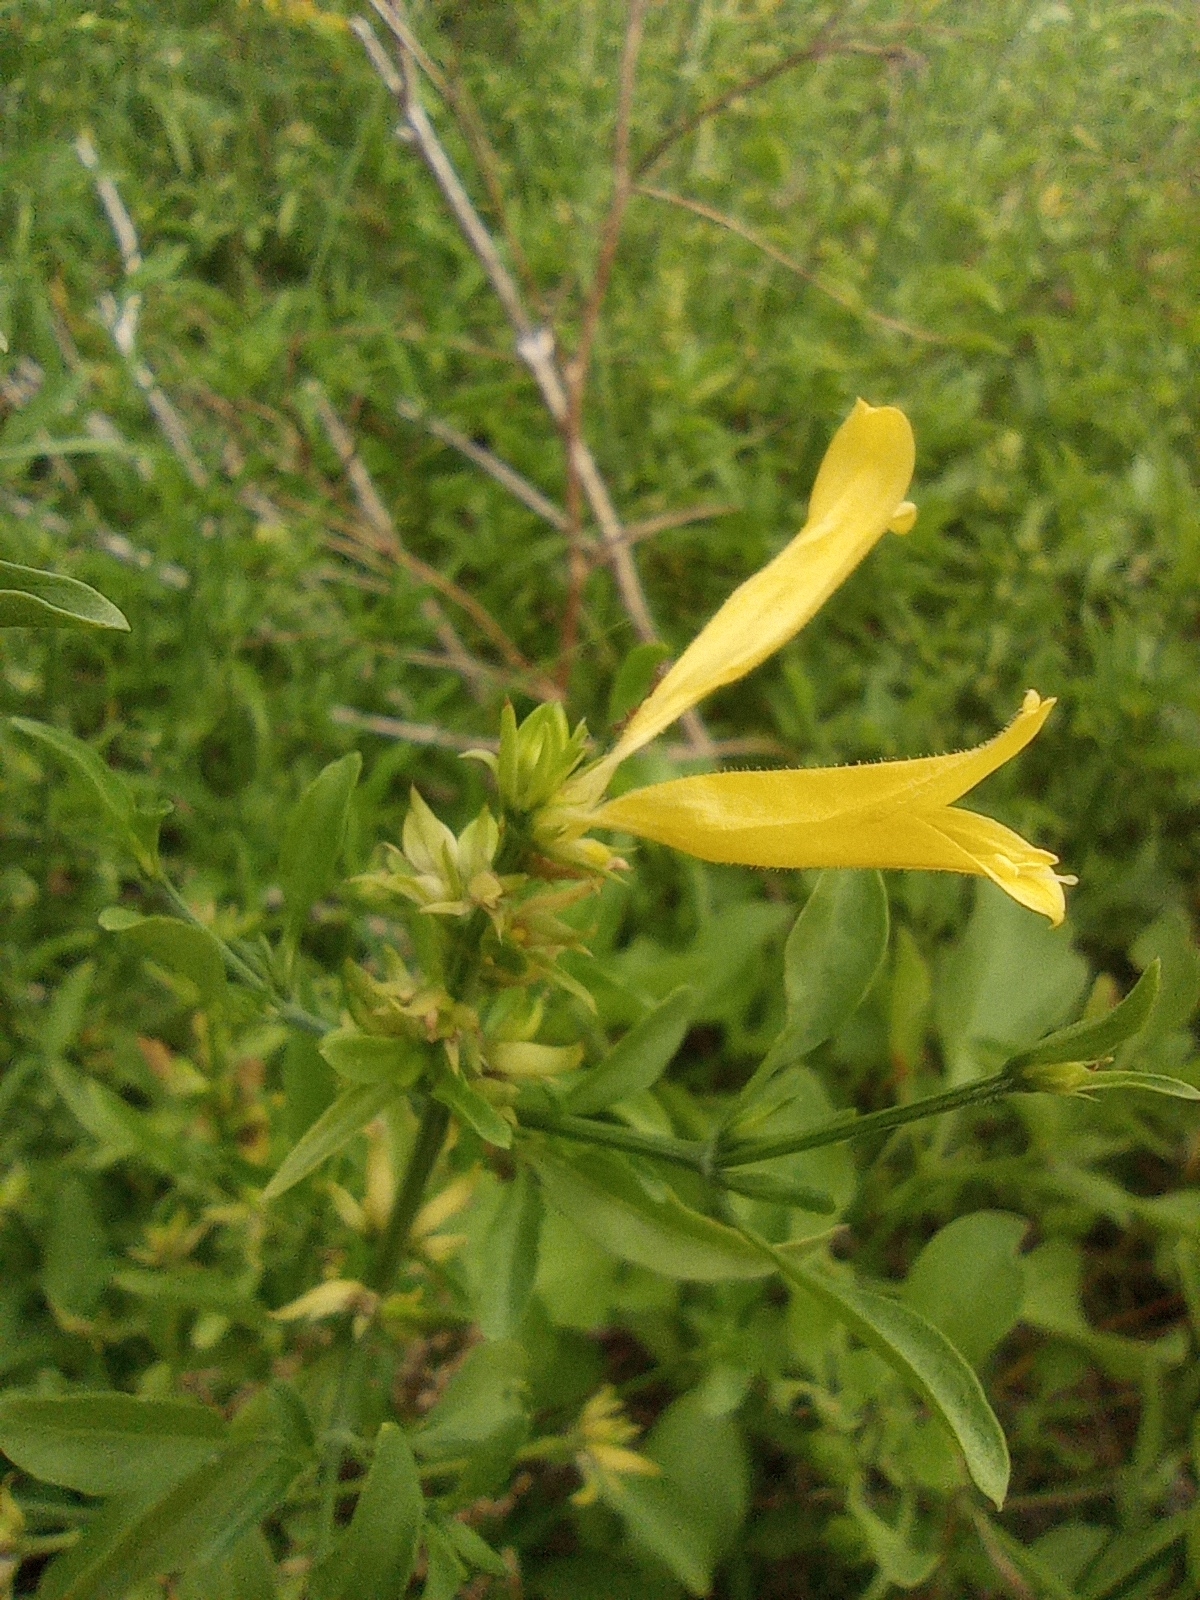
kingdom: Plantae
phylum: Tracheophyta
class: Magnoliopsida
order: Lamiales
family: Acanthaceae
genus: Dicliptera
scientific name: Dicliptera squarrosa
